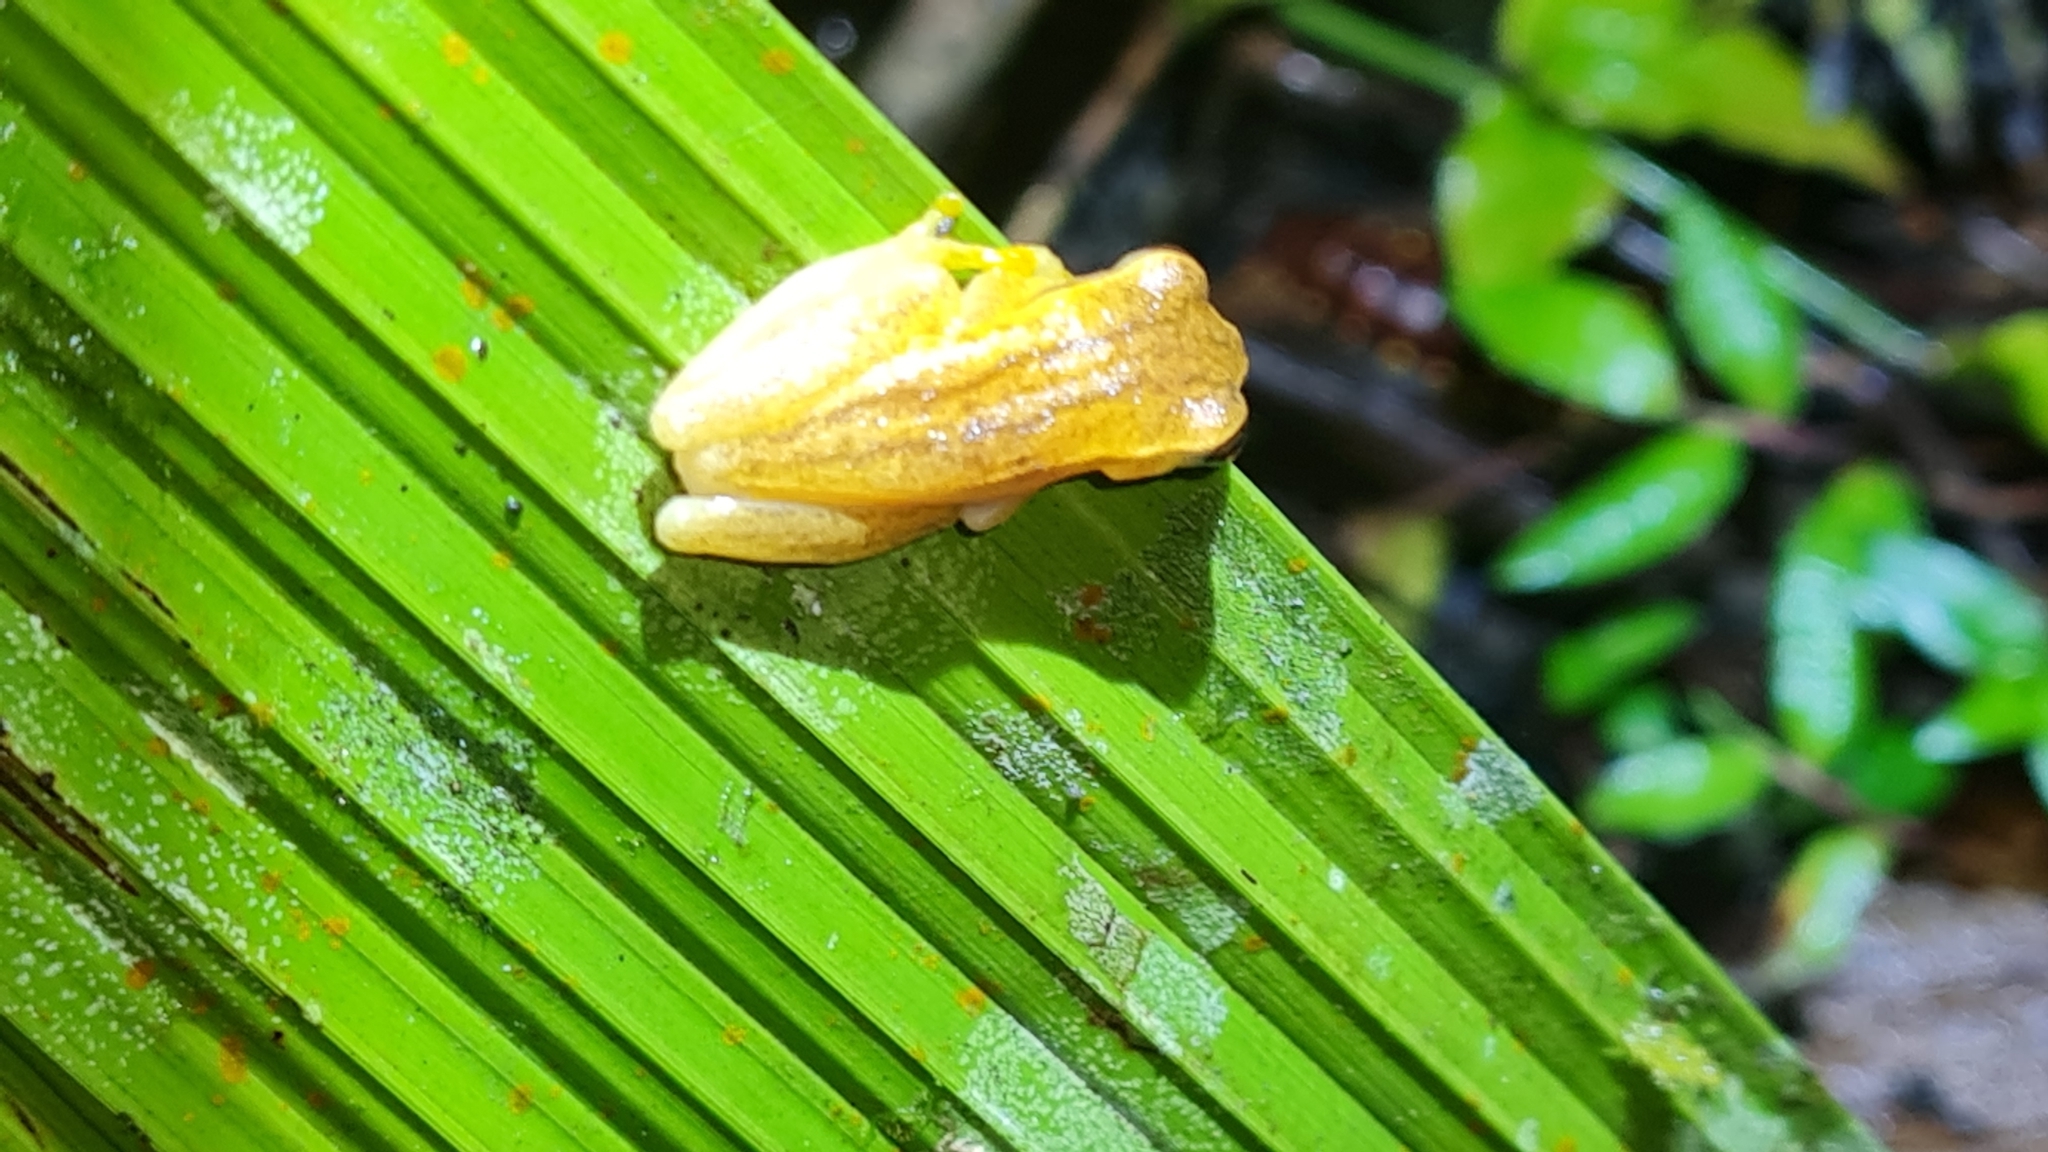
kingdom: Animalia
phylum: Chordata
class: Amphibia
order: Anura
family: Hylidae
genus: Dendropsophus
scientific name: Dendropsophus microcephalus
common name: Small-headed treefrog
